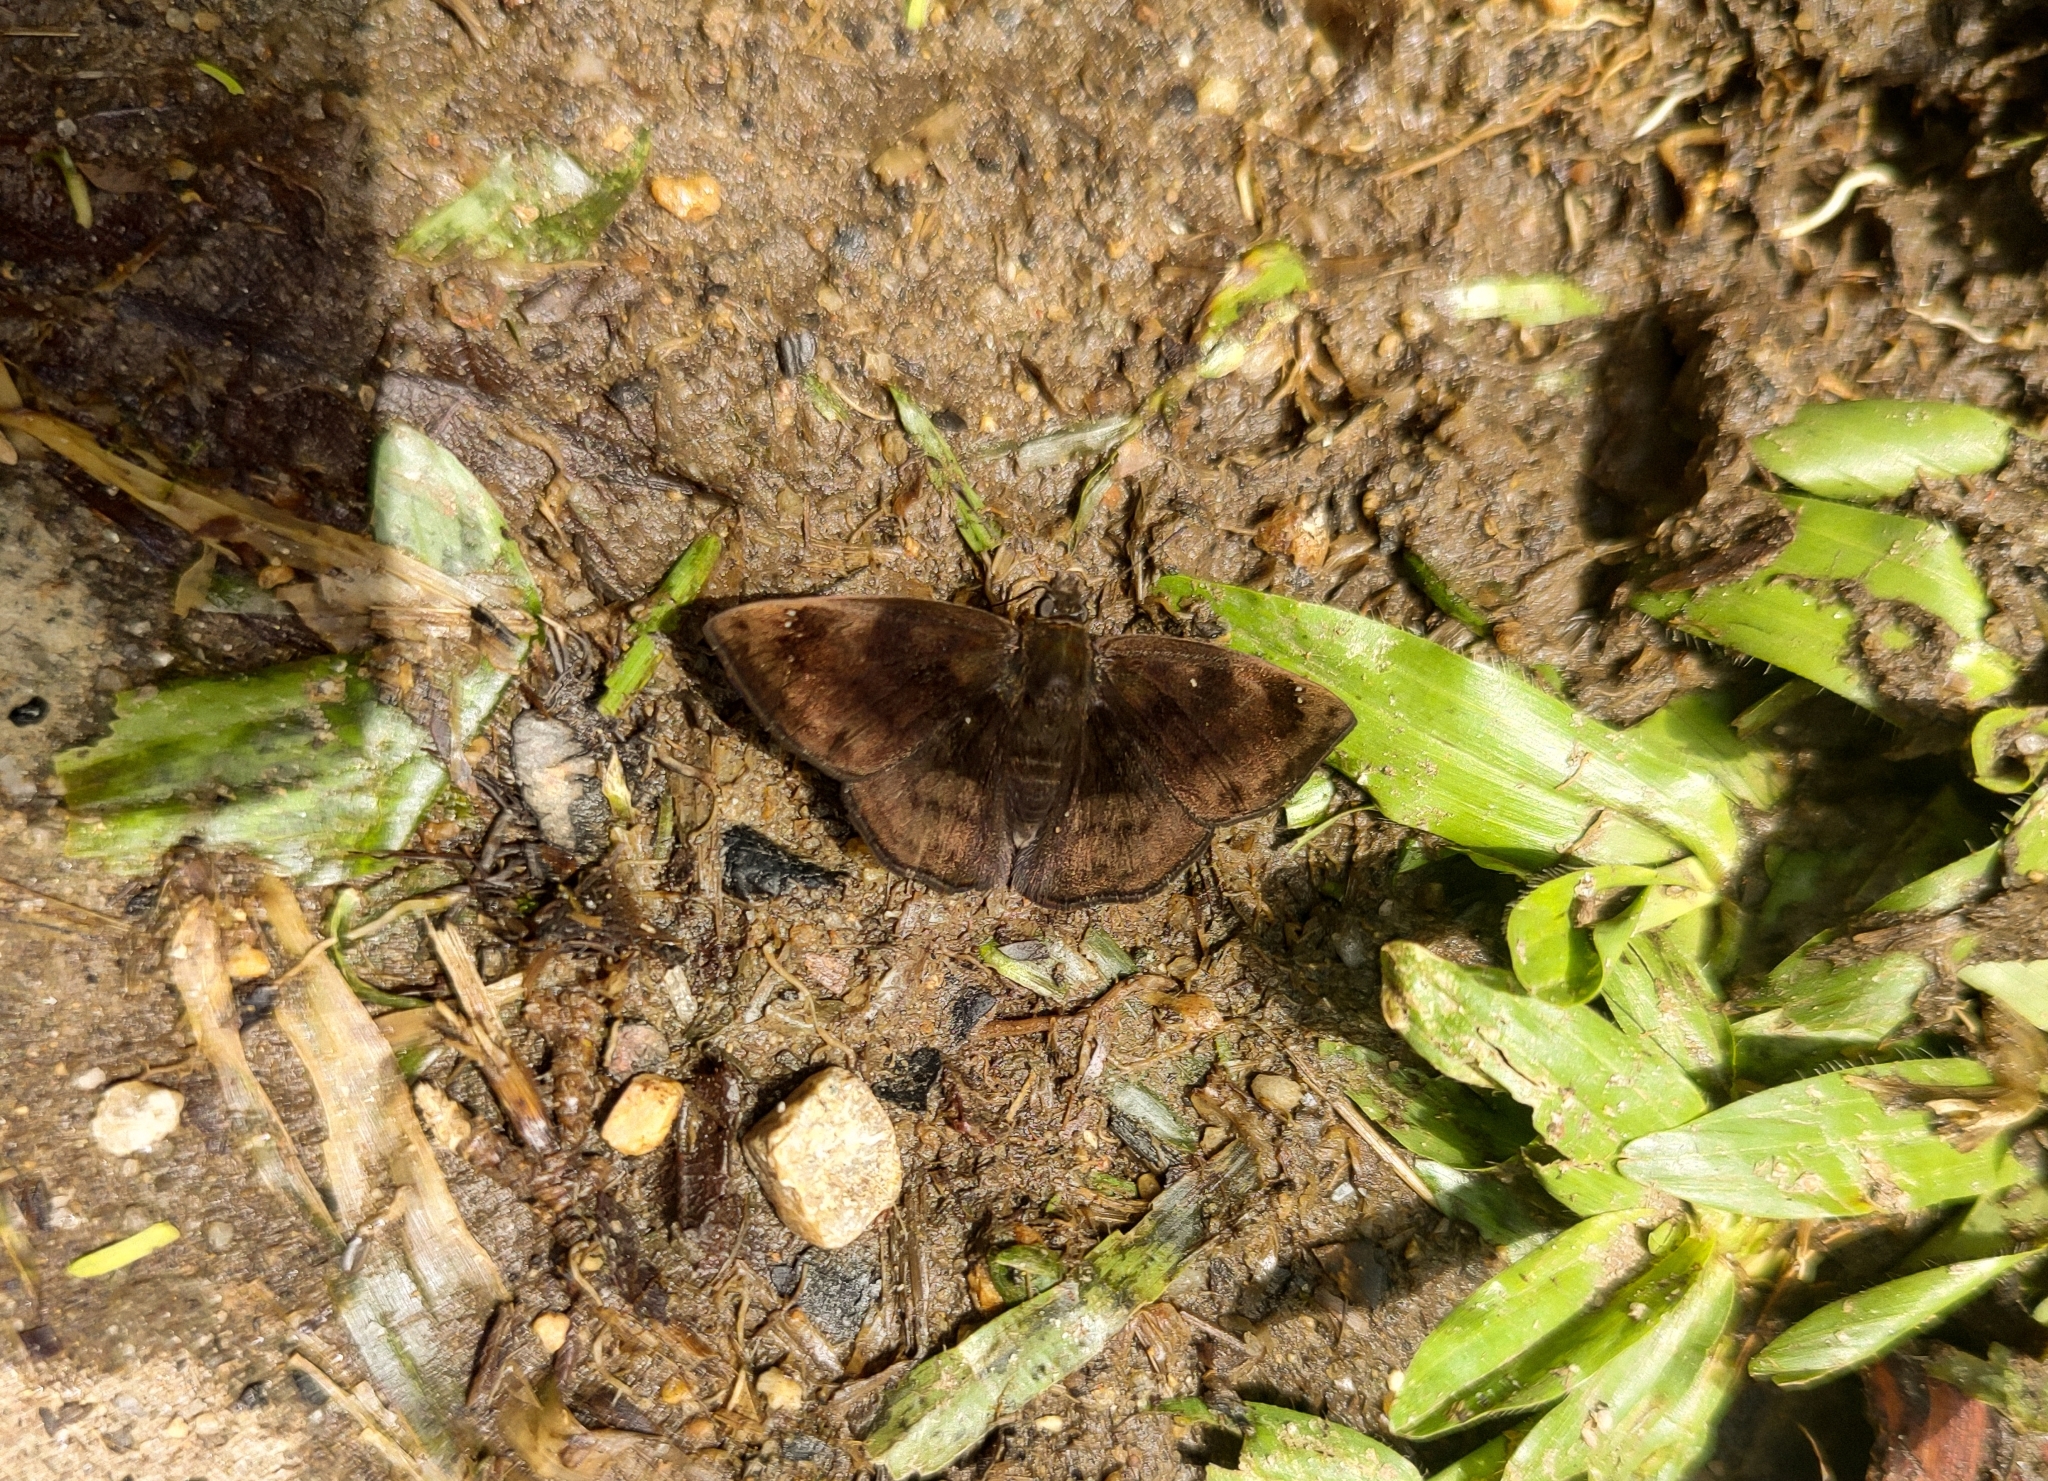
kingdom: Animalia
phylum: Arthropoda
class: Insecta
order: Lepidoptera
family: Hesperiidae
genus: Nisoniades
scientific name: Nisoniades bipuncta
